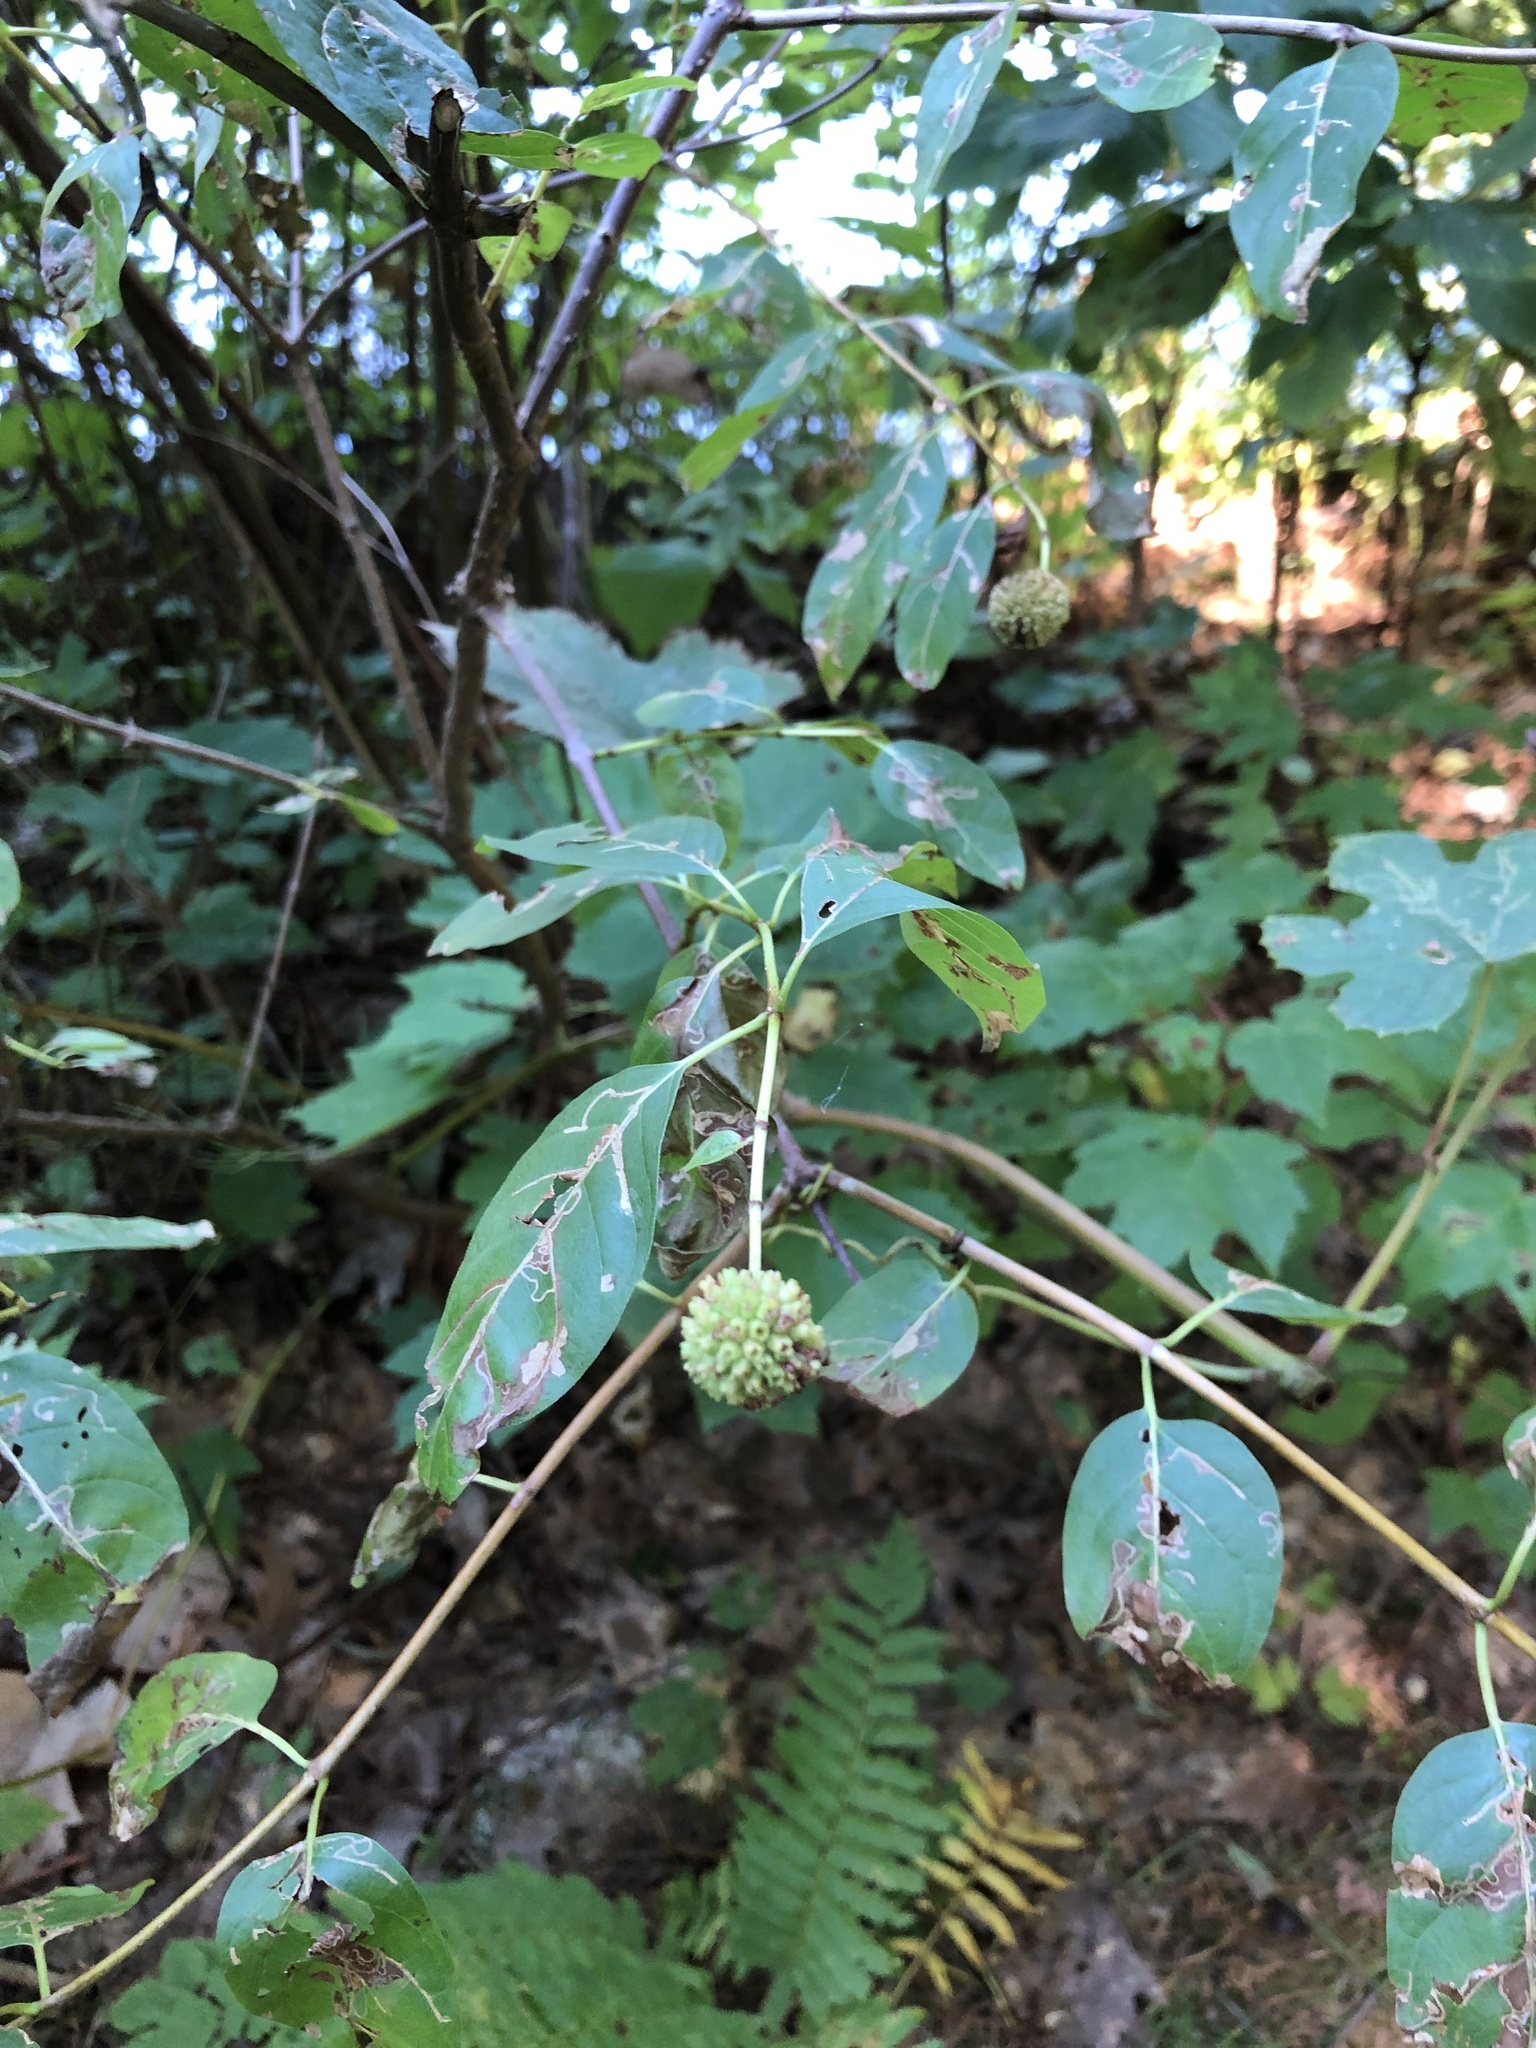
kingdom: Plantae
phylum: Tracheophyta
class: Magnoliopsida
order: Gentianales
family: Rubiaceae
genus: Cephalanthus
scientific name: Cephalanthus occidentalis
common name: Button-willow
